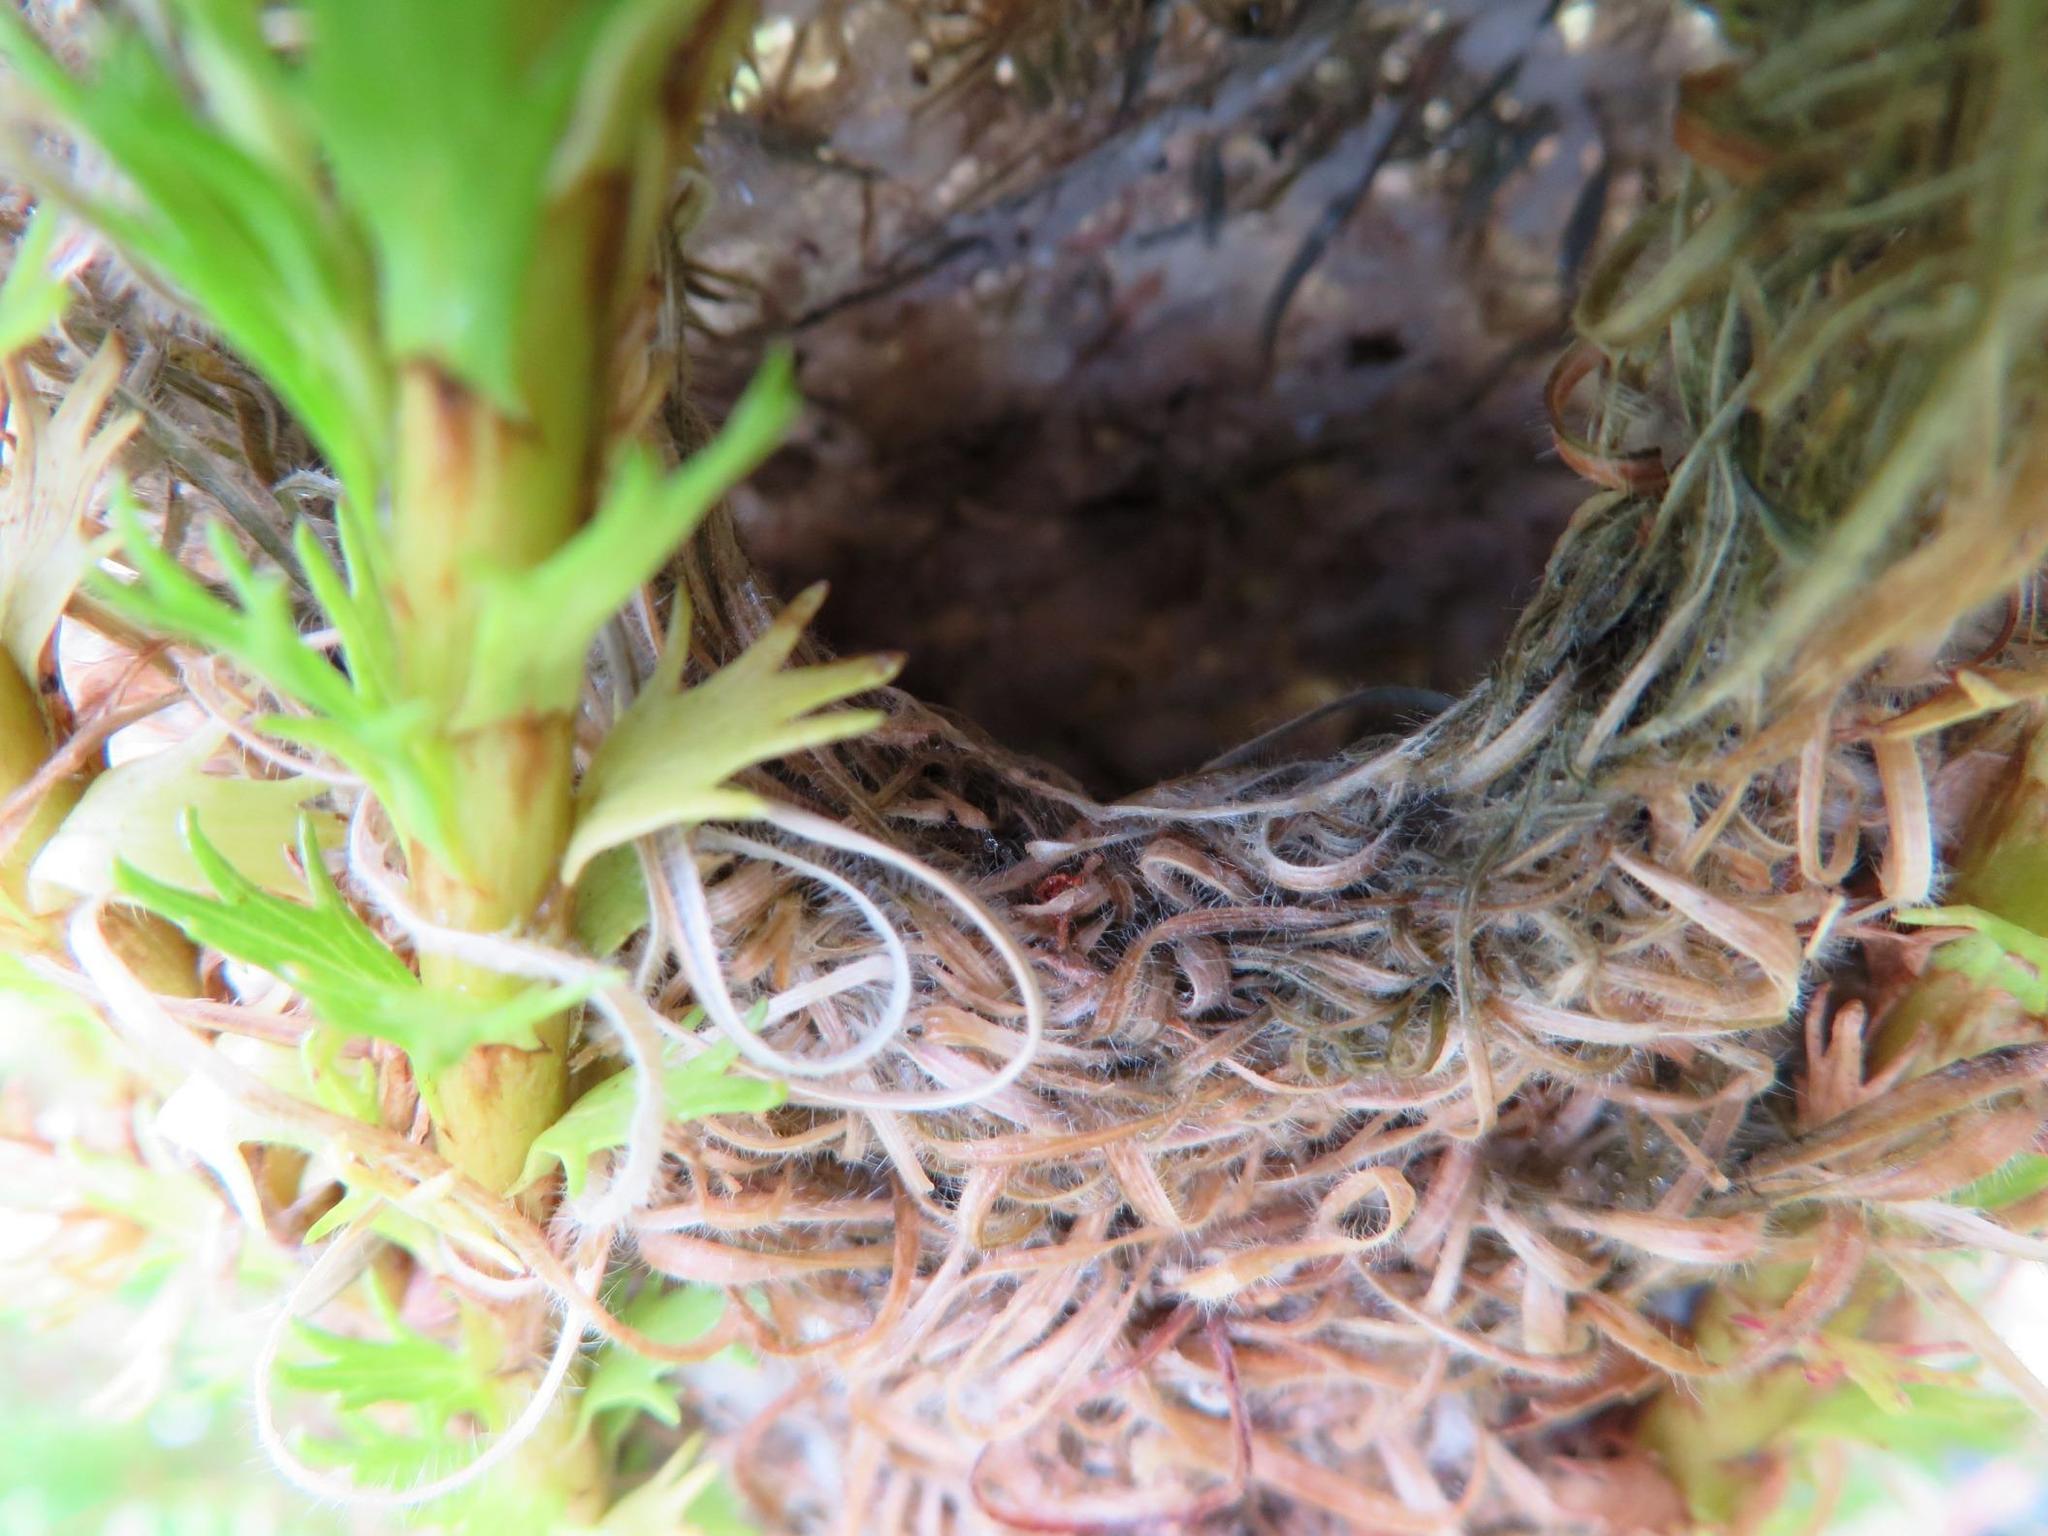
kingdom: Animalia
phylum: Chordata
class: Aves
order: Passeriformes
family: Cisticolidae
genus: Prinia
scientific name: Prinia maculosa
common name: Karoo prinia
